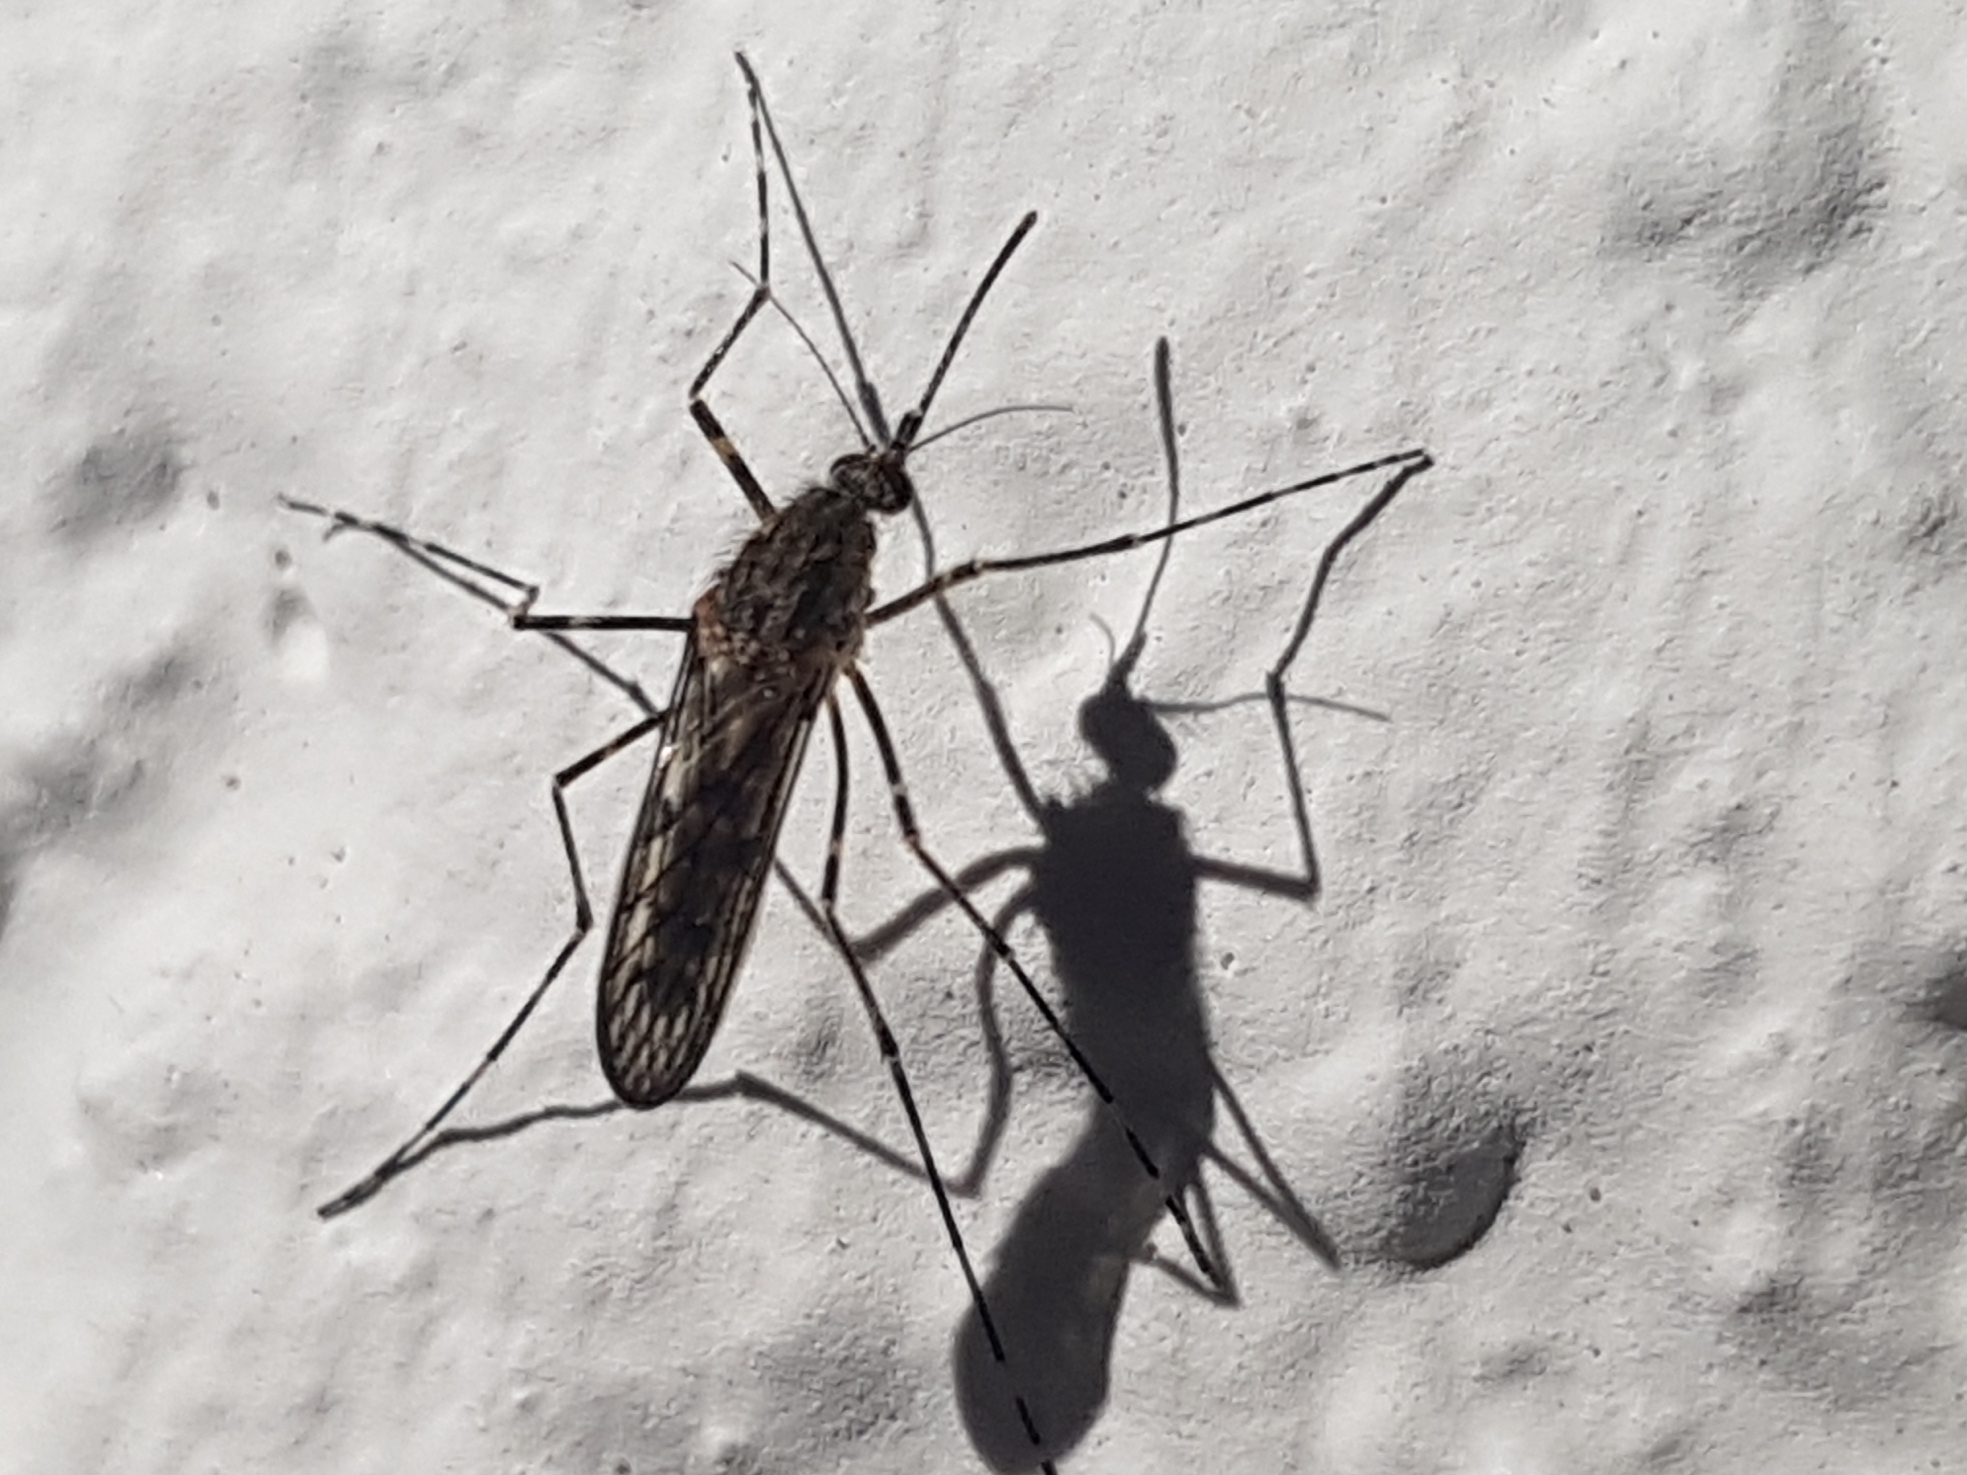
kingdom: Animalia
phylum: Arthropoda
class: Insecta
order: Diptera
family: Culicidae
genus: Culiseta
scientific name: Culiseta annulata
